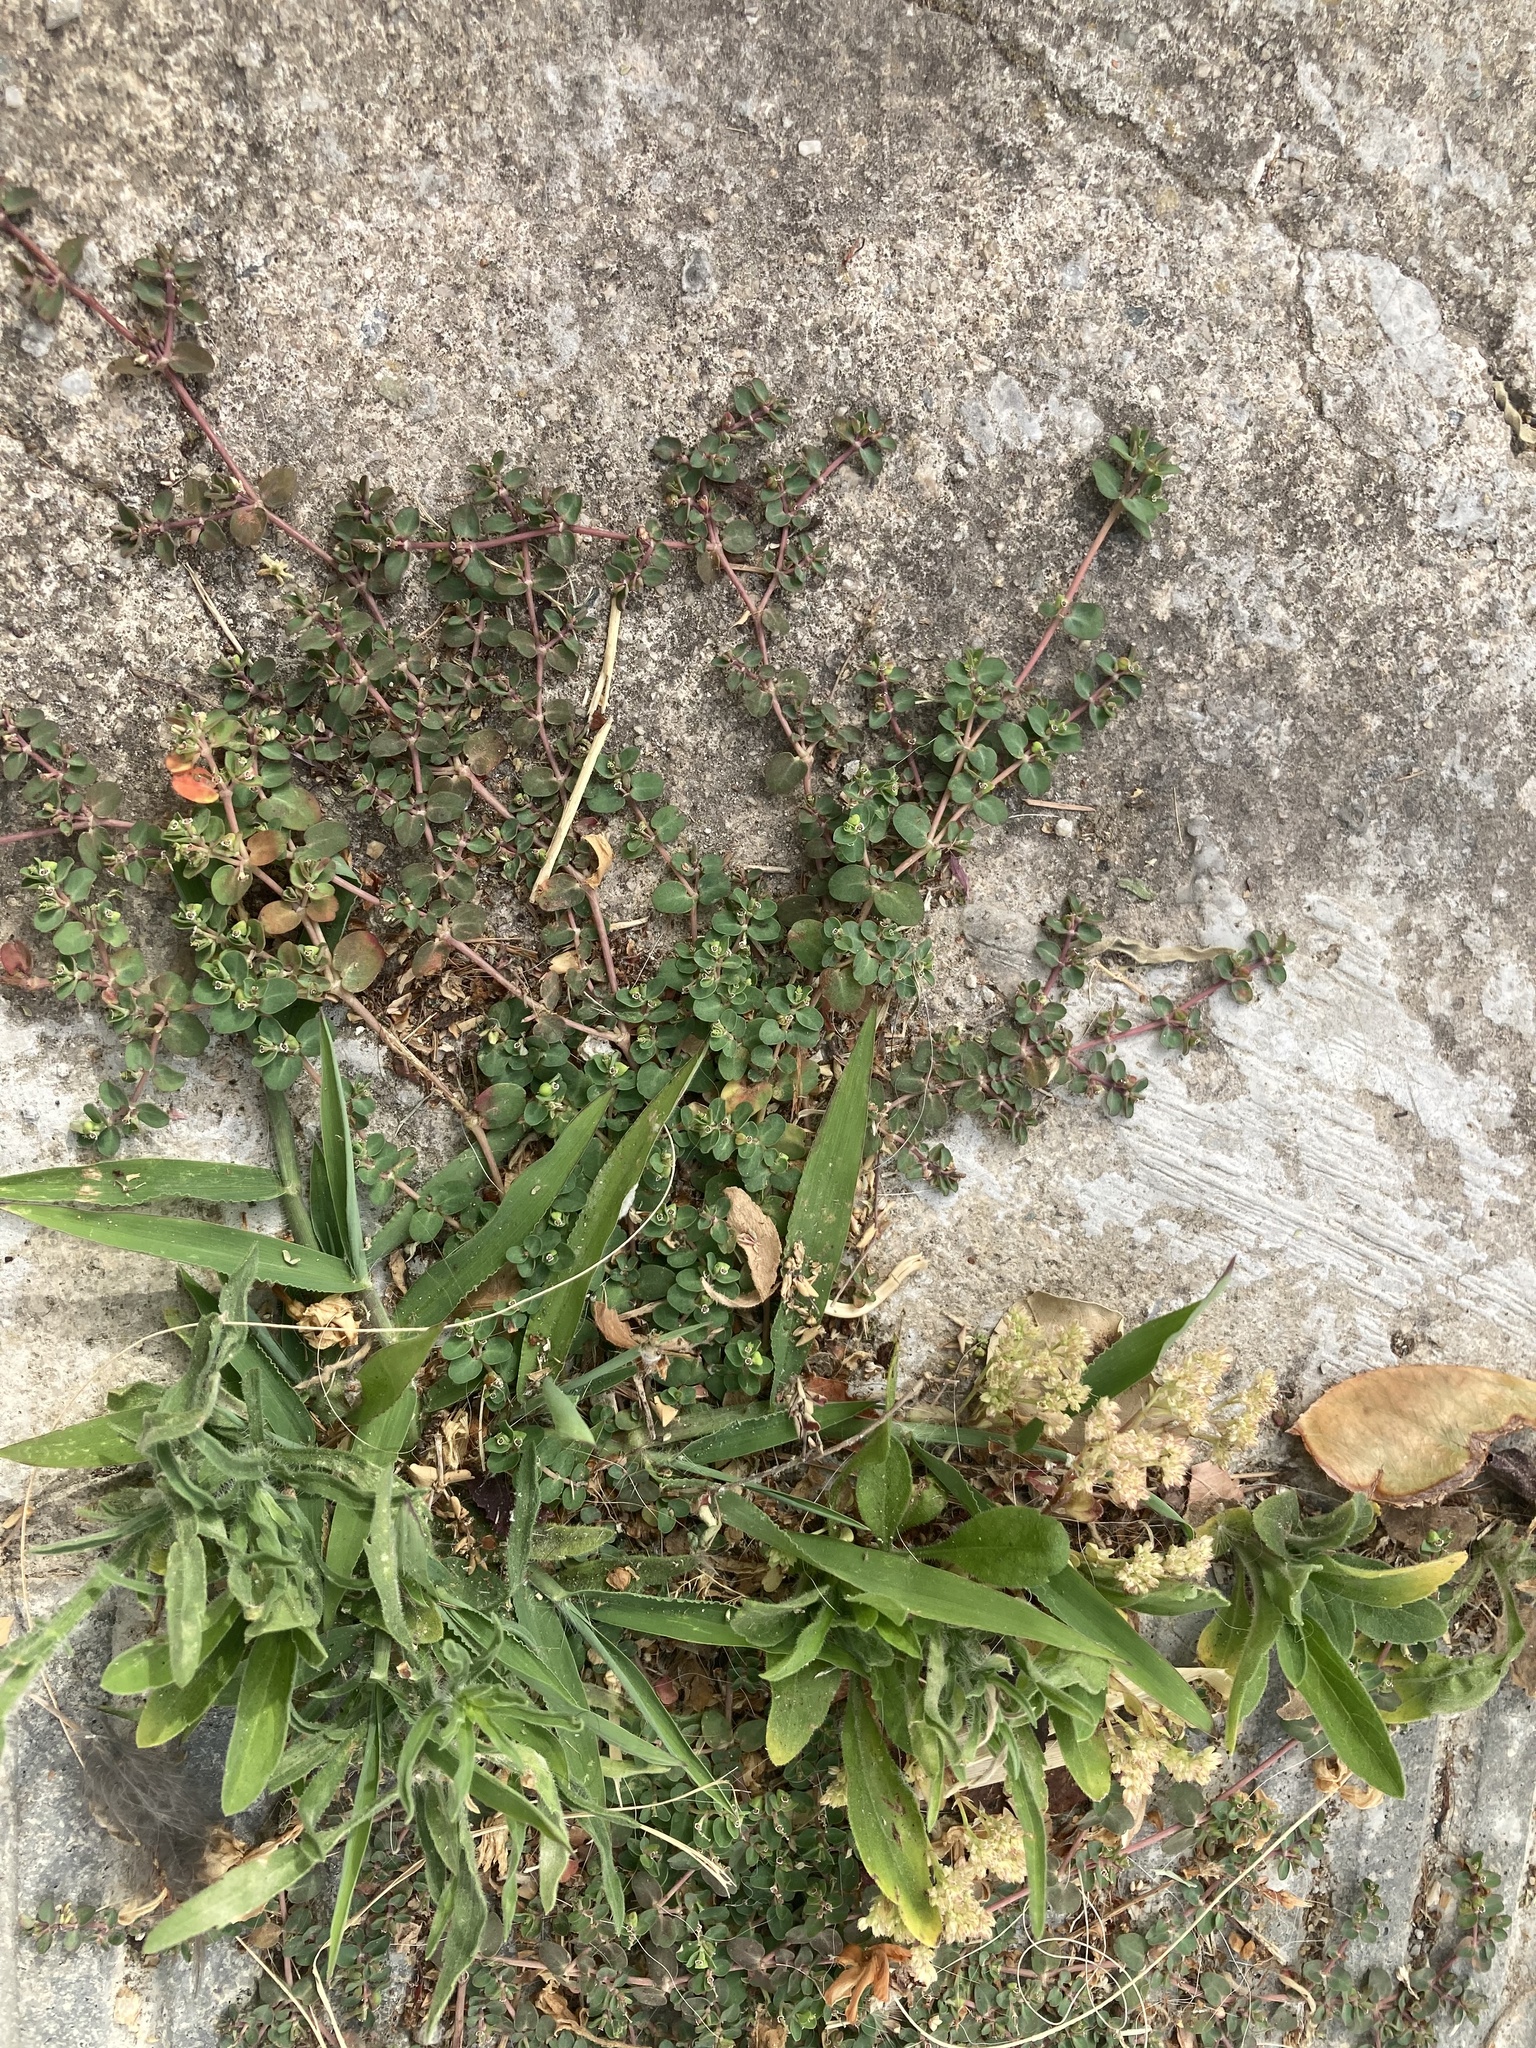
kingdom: Plantae
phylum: Tracheophyta
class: Magnoliopsida
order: Malpighiales
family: Euphorbiaceae
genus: Euphorbia
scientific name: Euphorbia serpens
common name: Matted sandmat
